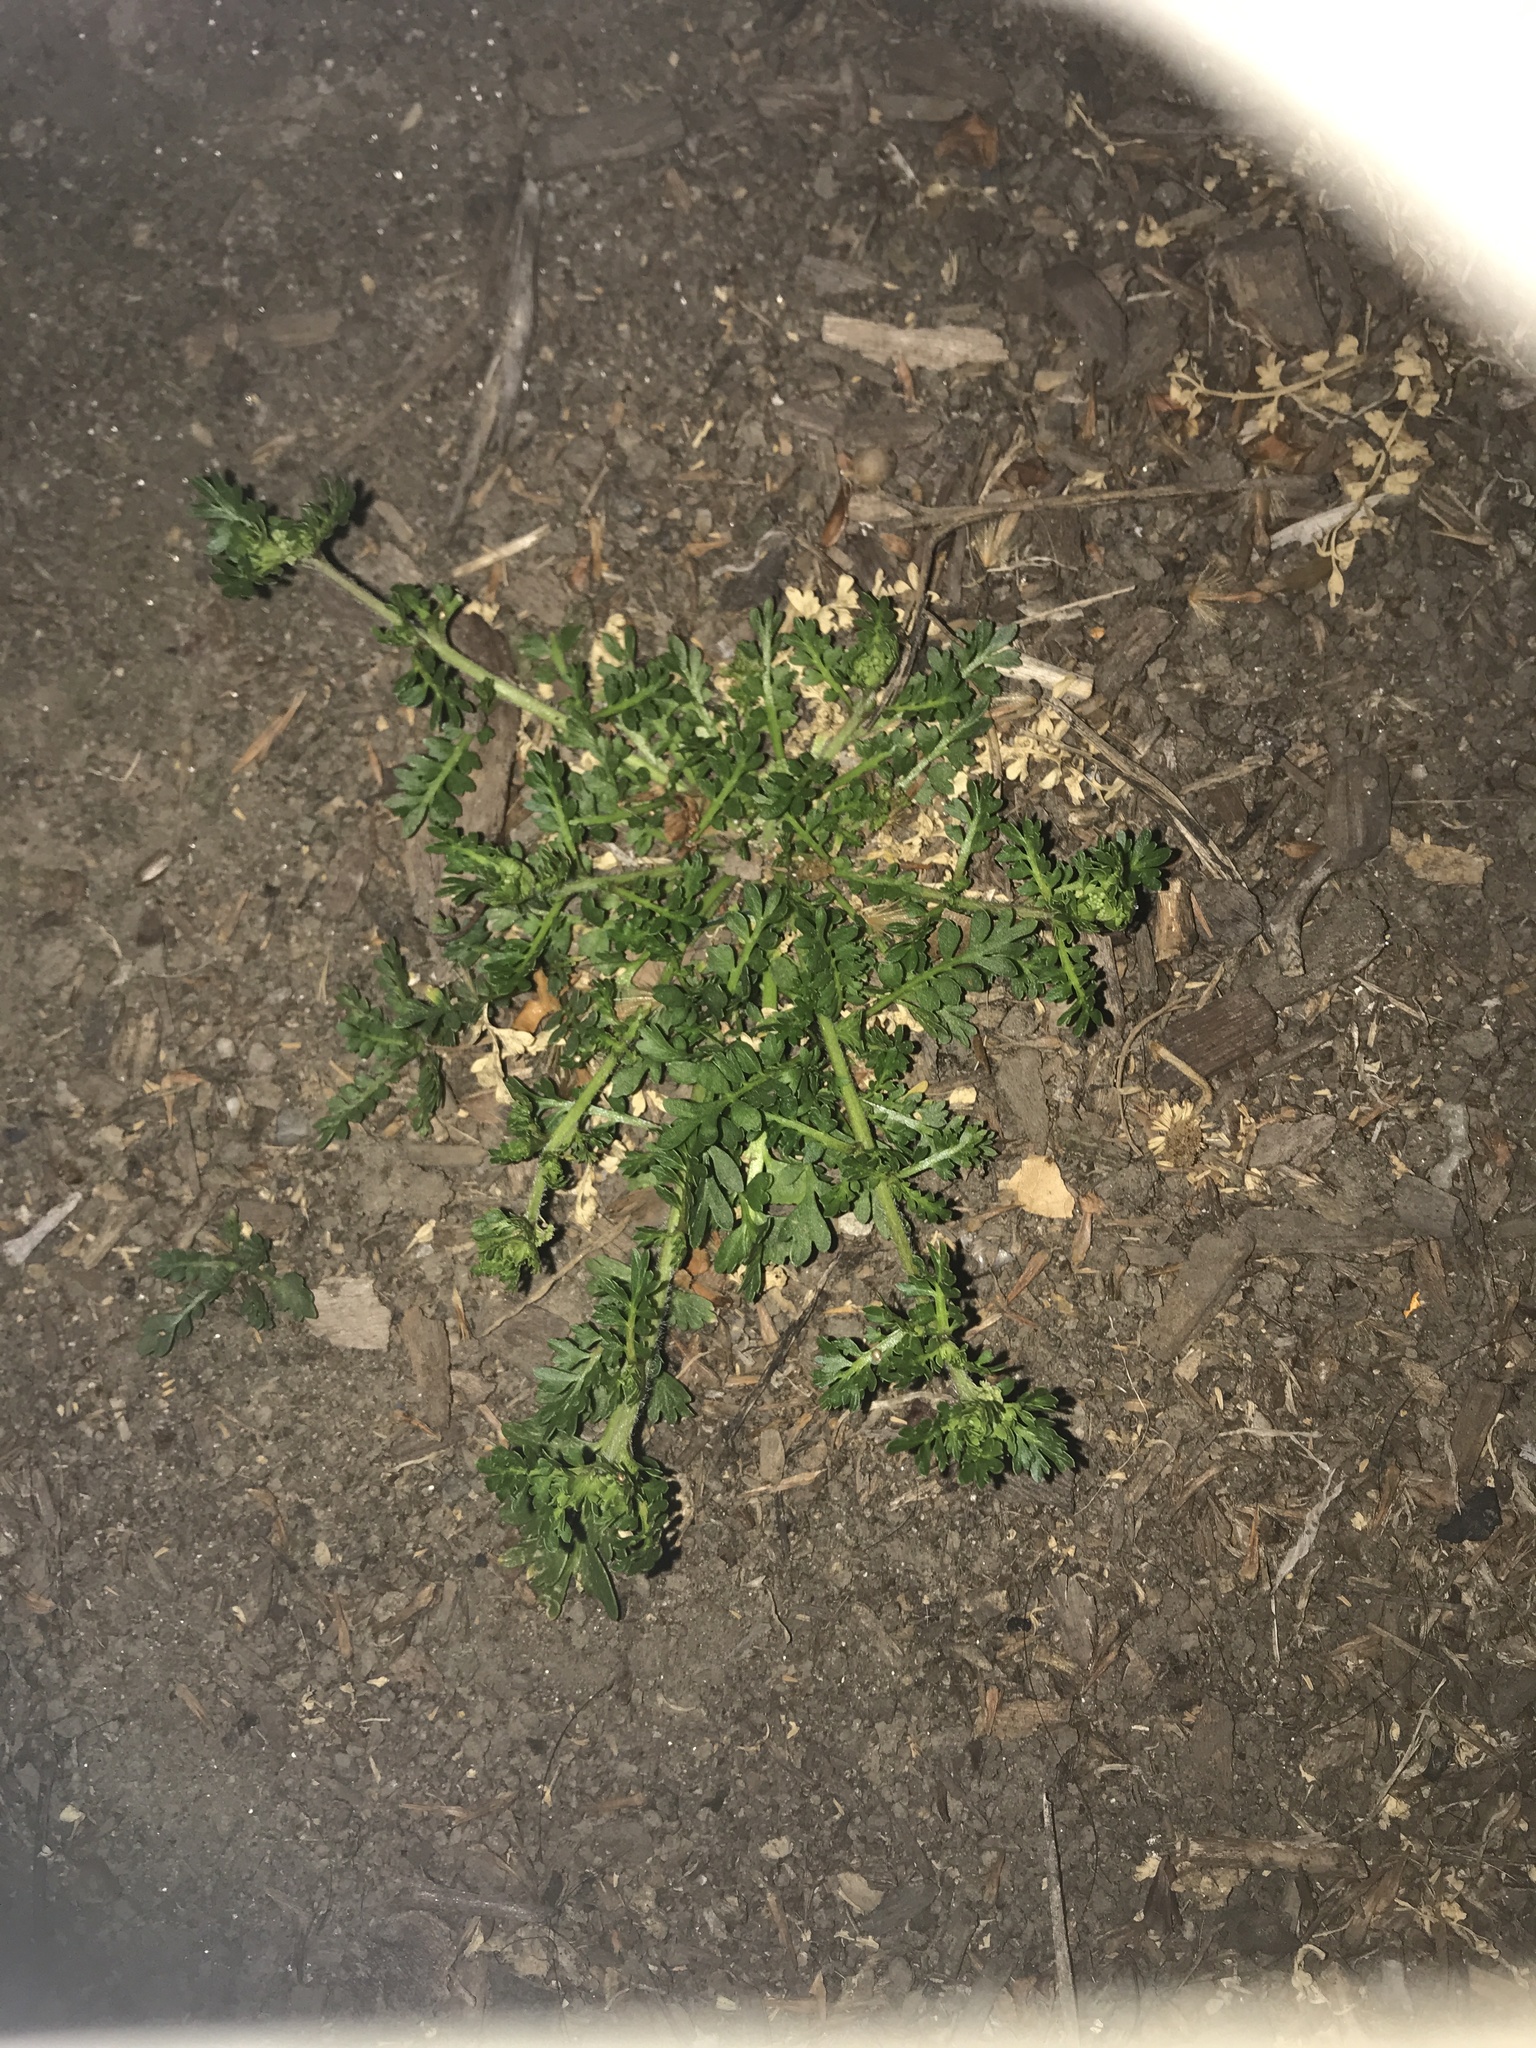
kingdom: Plantae
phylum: Tracheophyta
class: Magnoliopsida
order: Brassicales
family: Brassicaceae
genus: Lepidium
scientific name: Lepidium didymum
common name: Lesser swinecress
